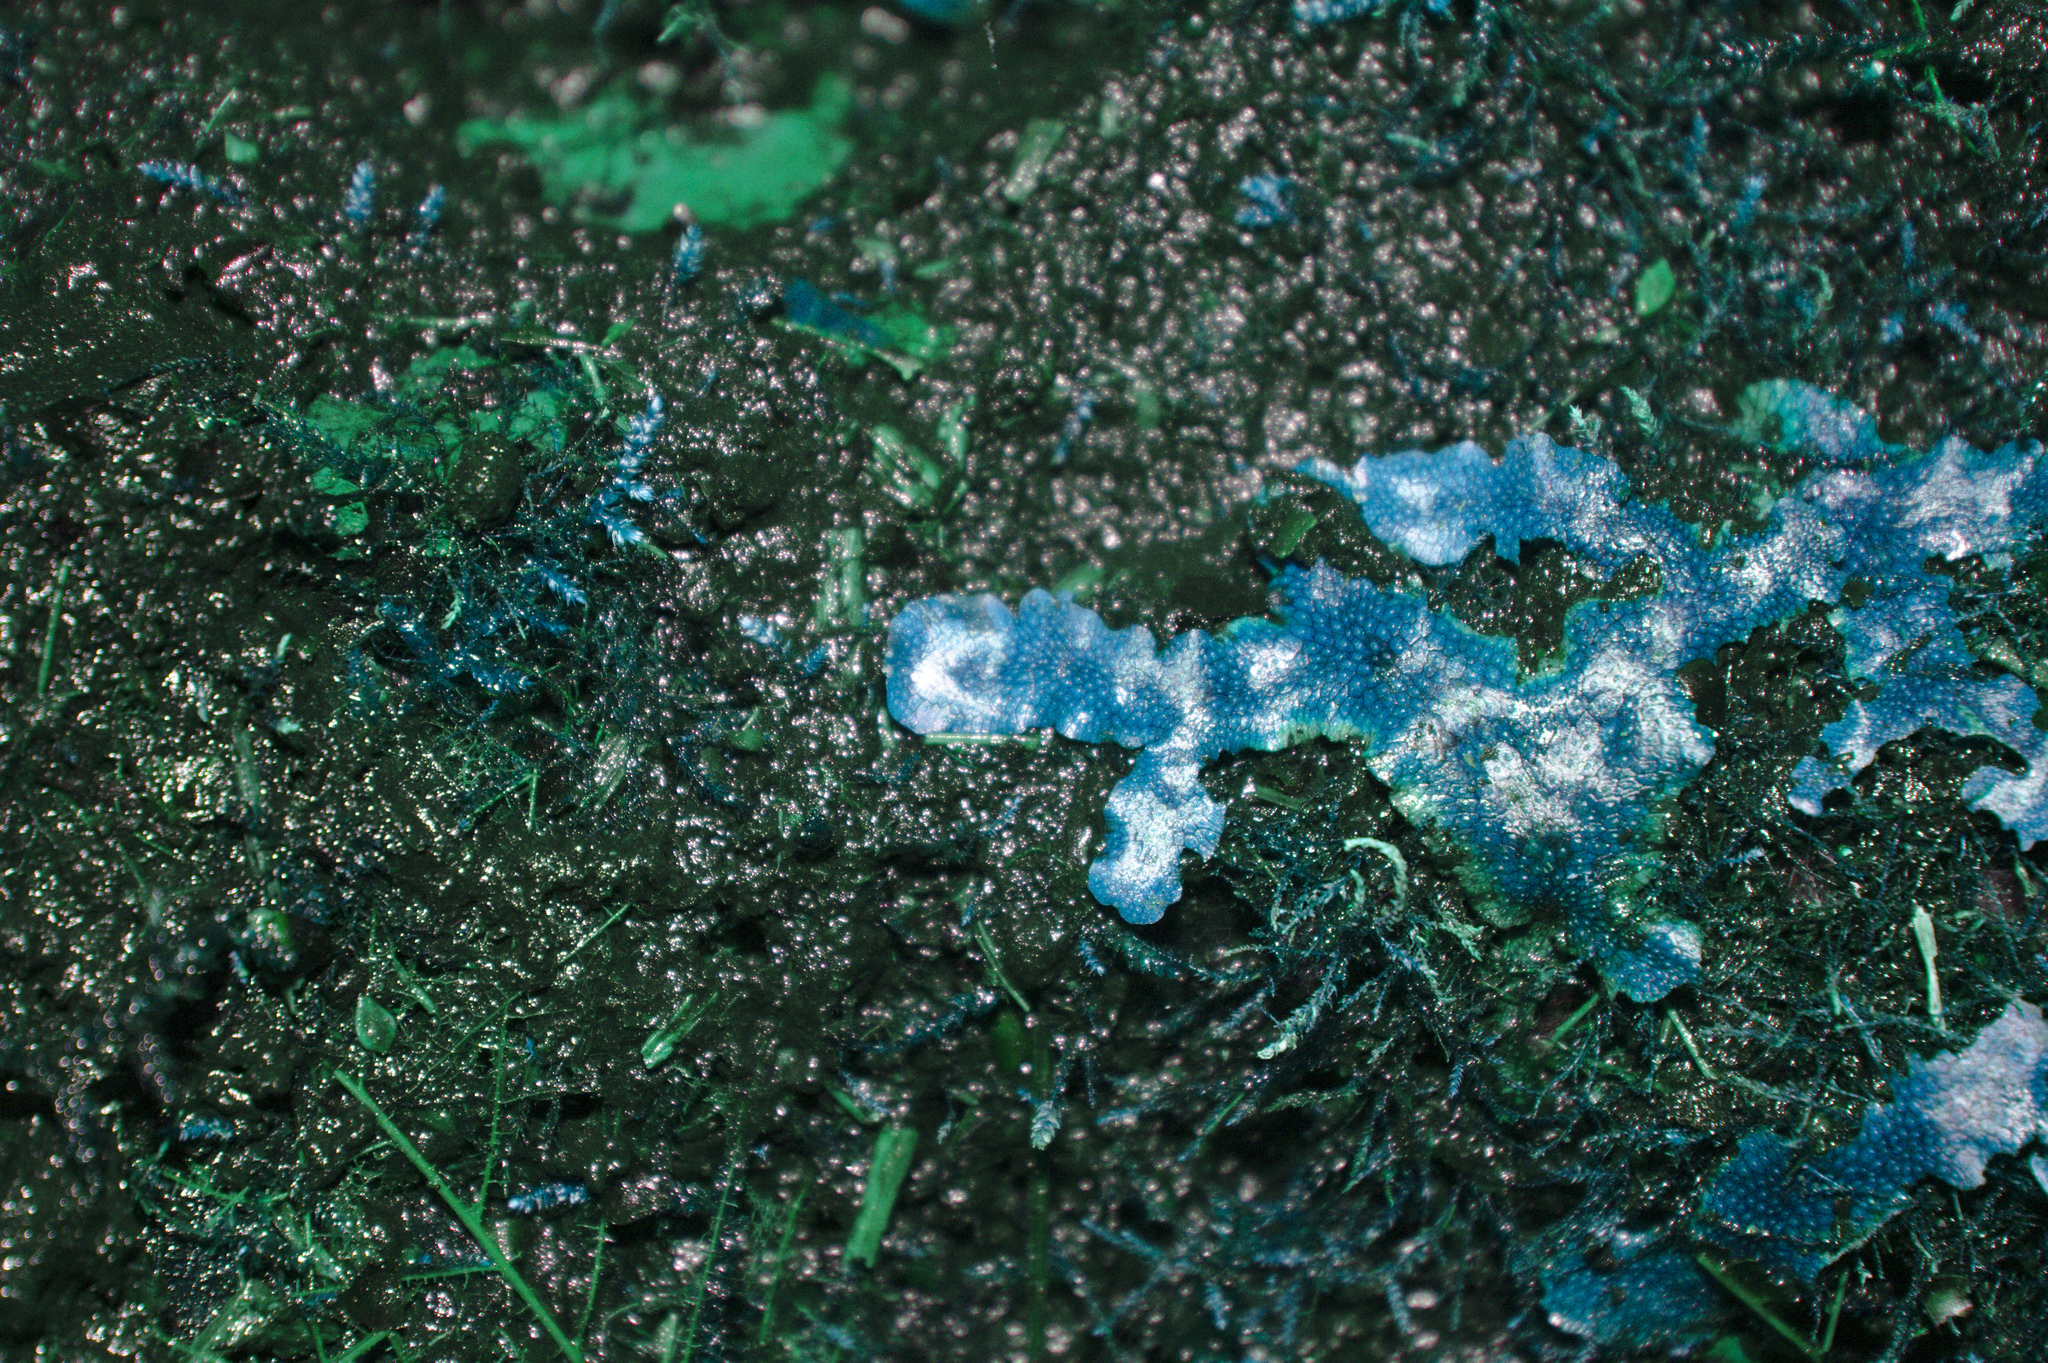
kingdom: Plantae
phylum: Marchantiophyta
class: Marchantiopsida
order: Marchantiales
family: Conocephalaceae
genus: Conocephalum
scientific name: Conocephalum salebrosum
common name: Cat-tongue liverwort
